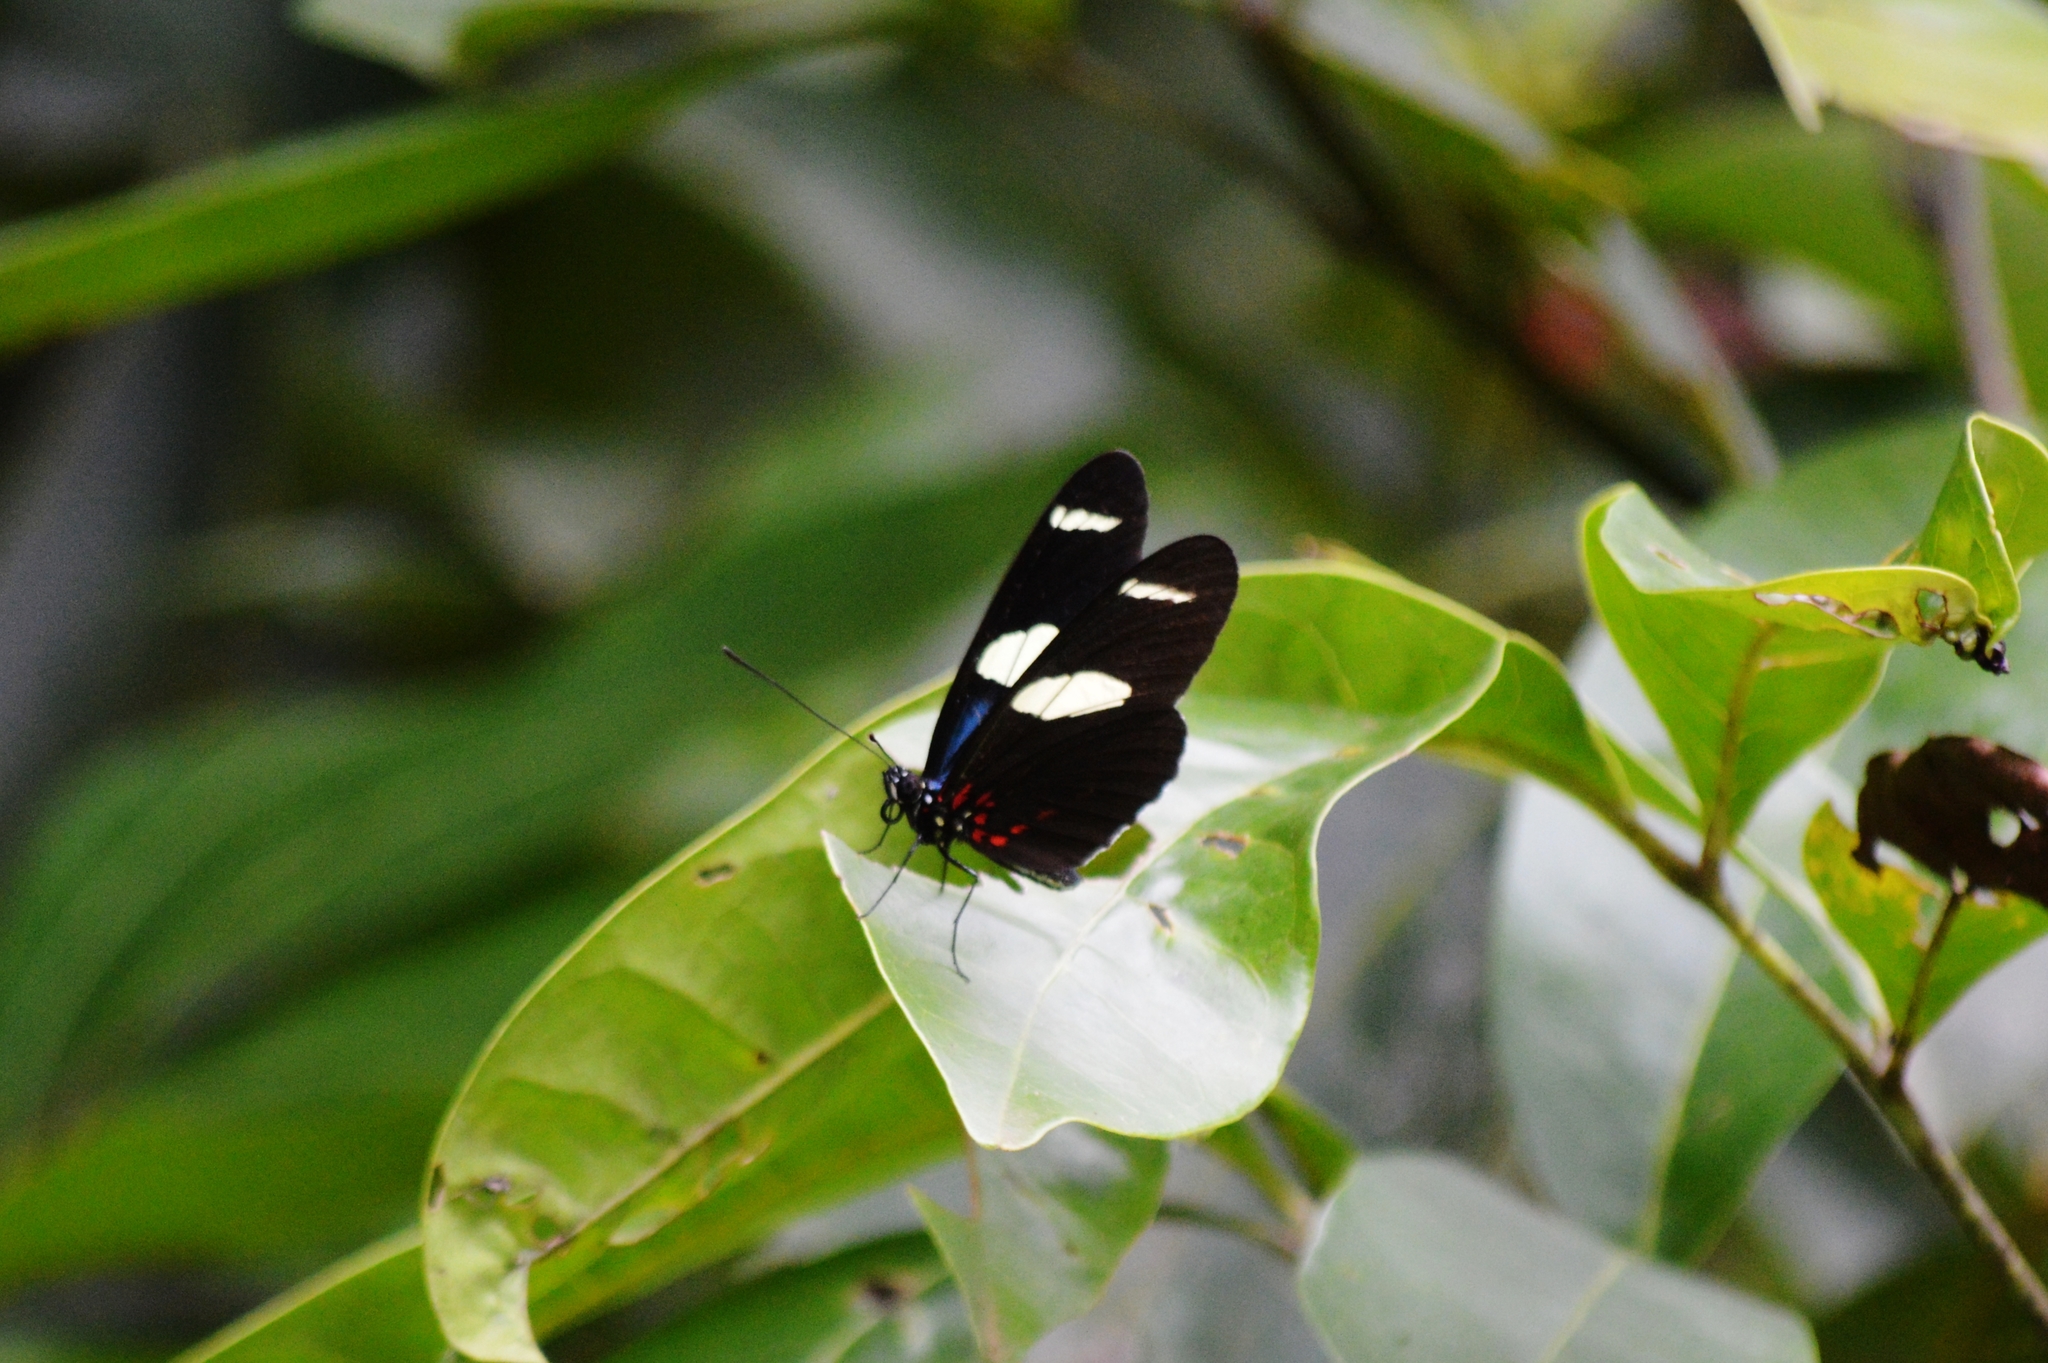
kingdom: Animalia
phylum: Arthropoda
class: Insecta
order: Lepidoptera
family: Nymphalidae
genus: Heliconius
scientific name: Heliconius sara
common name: Sara longwing
